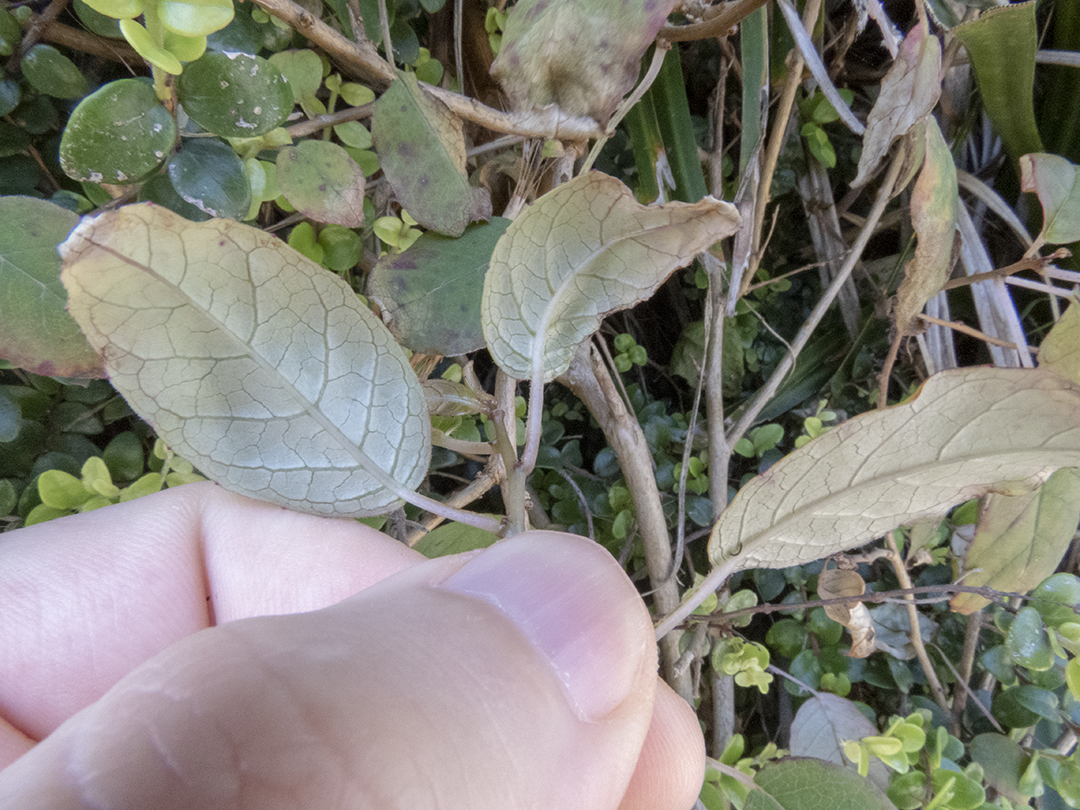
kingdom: Plantae
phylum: Tracheophyta
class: Magnoliopsida
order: Myrtales
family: Onagraceae
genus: Fuchsia
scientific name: Fuchsia colensoi
